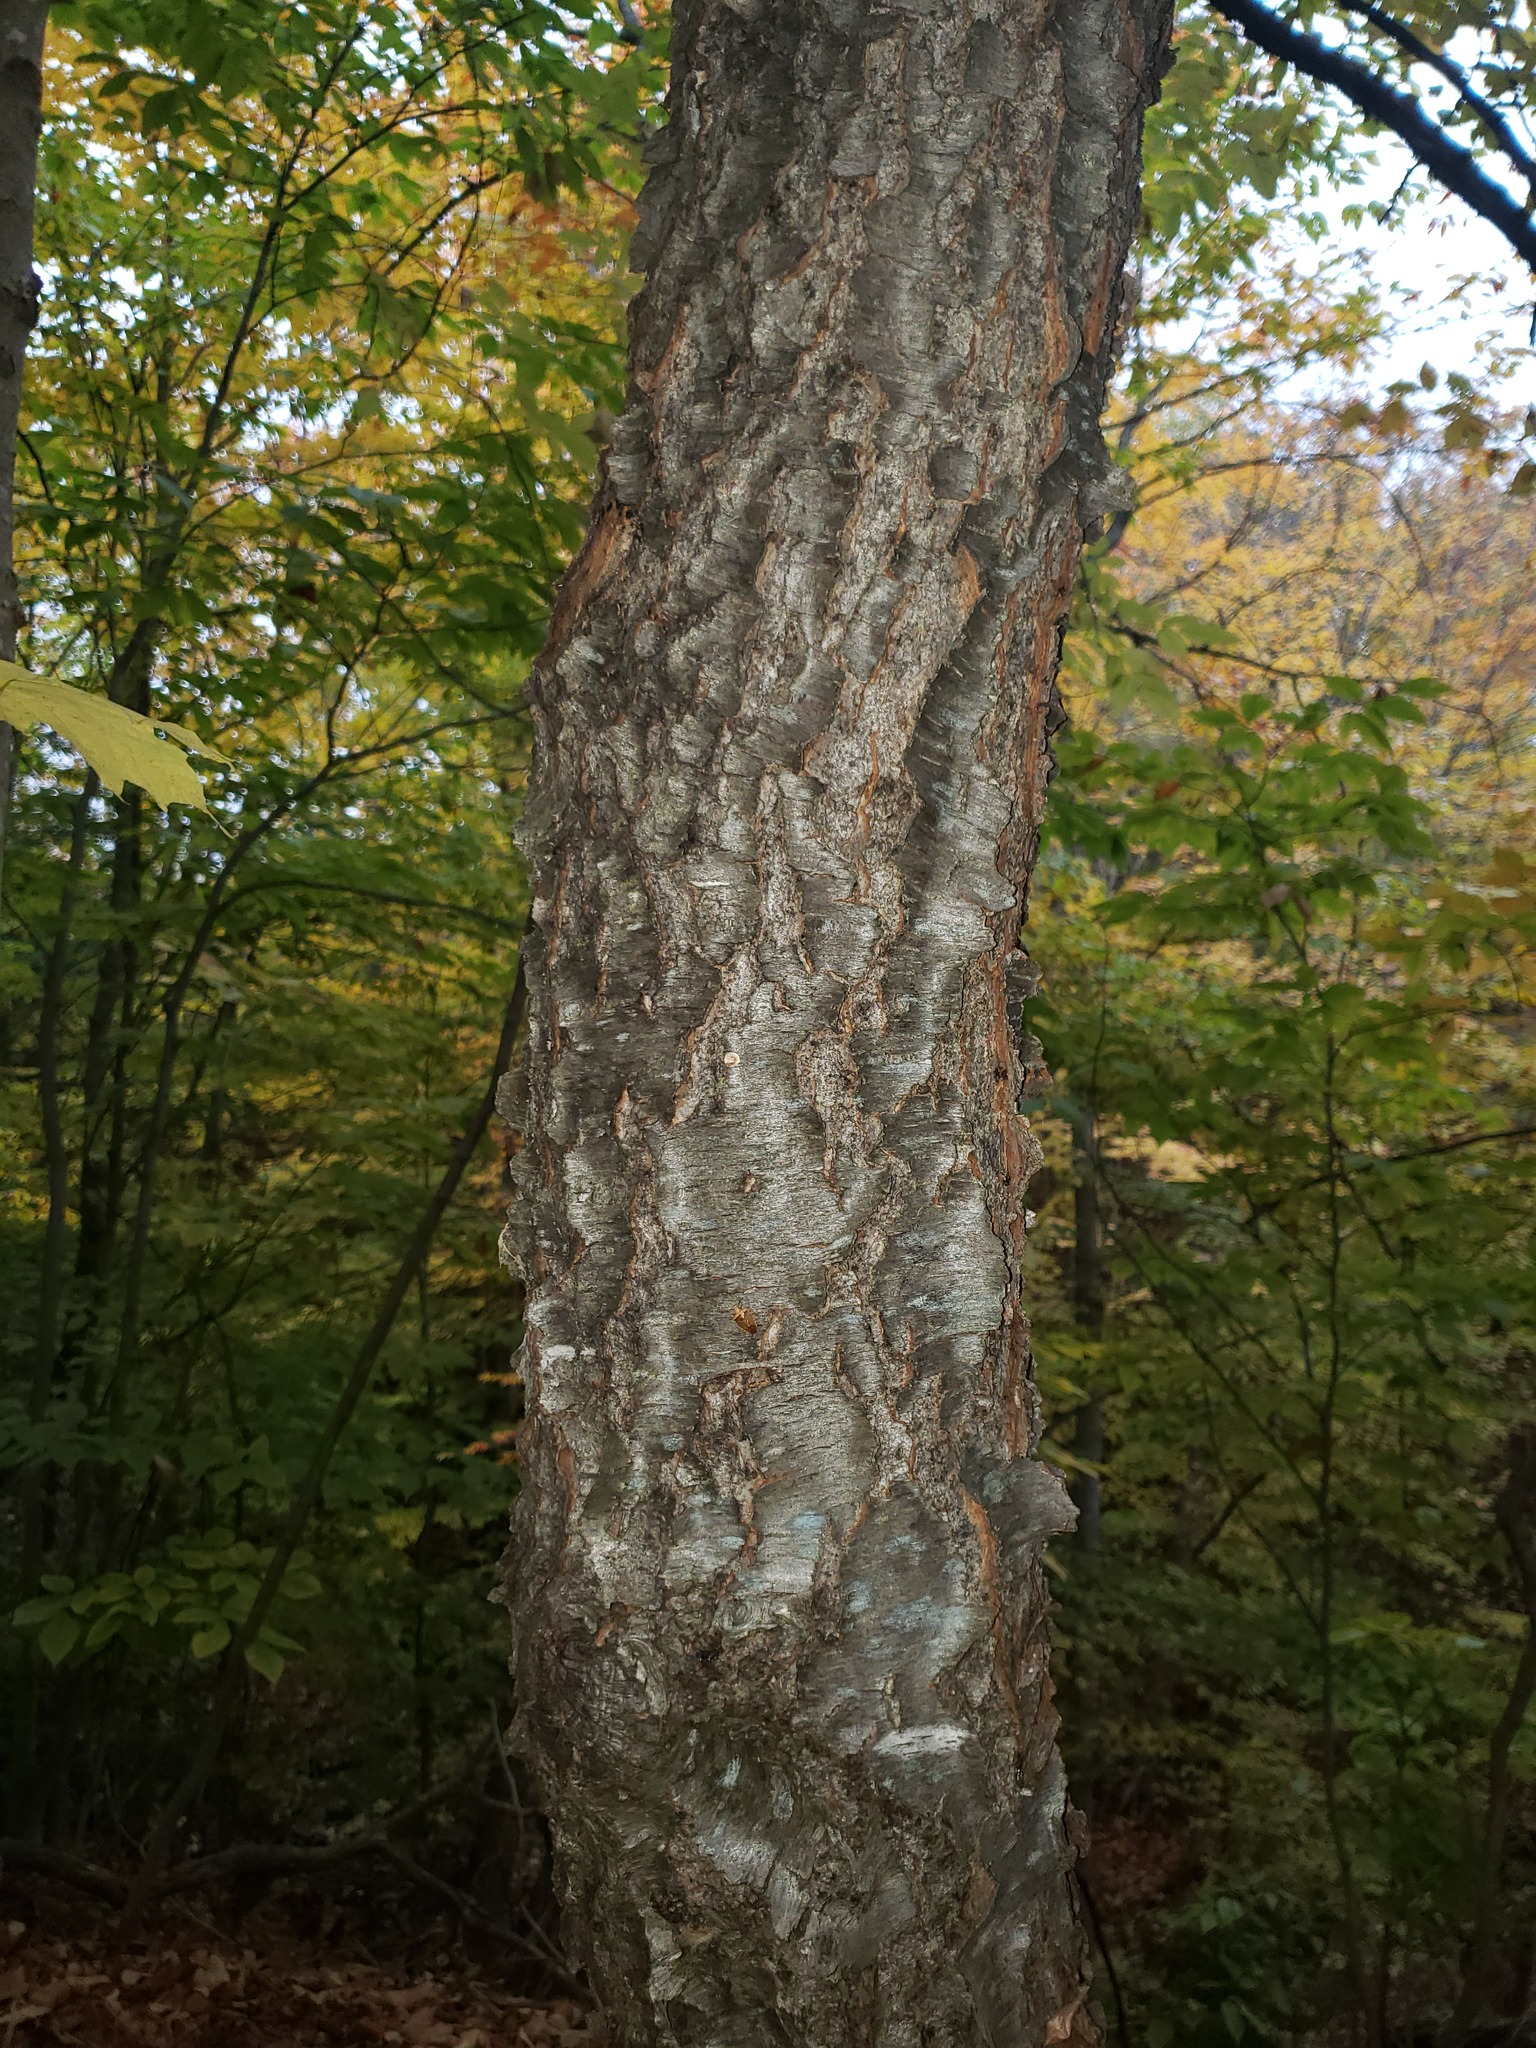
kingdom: Plantae
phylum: Tracheophyta
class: Magnoliopsida
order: Rosales
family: Rosaceae
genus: Prunus
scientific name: Prunus serotina
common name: Black cherry
